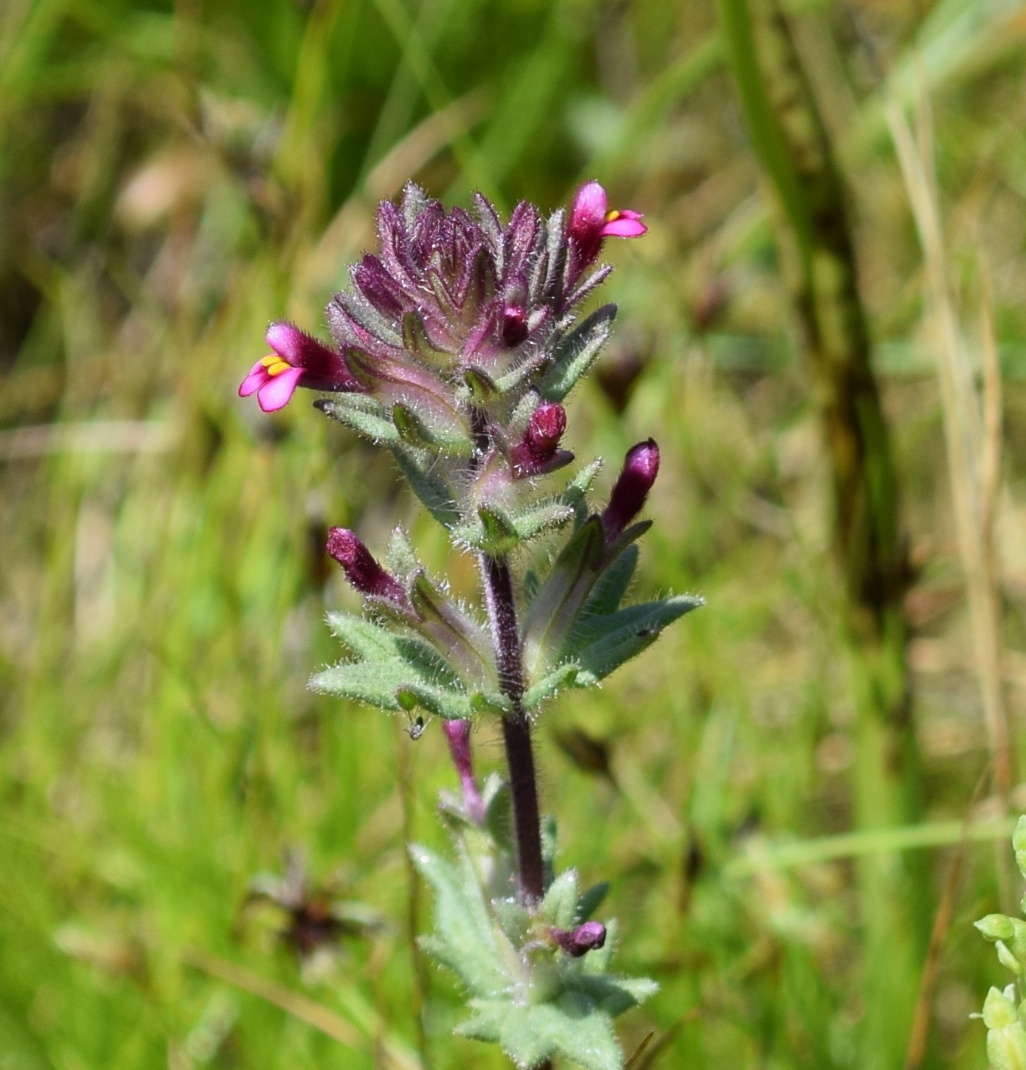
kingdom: Plantae
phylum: Tracheophyta
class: Magnoliopsida
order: Lamiales
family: Orobanchaceae
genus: Parentucellia
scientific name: Parentucellia latifolia
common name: Broadleaf glandweed
